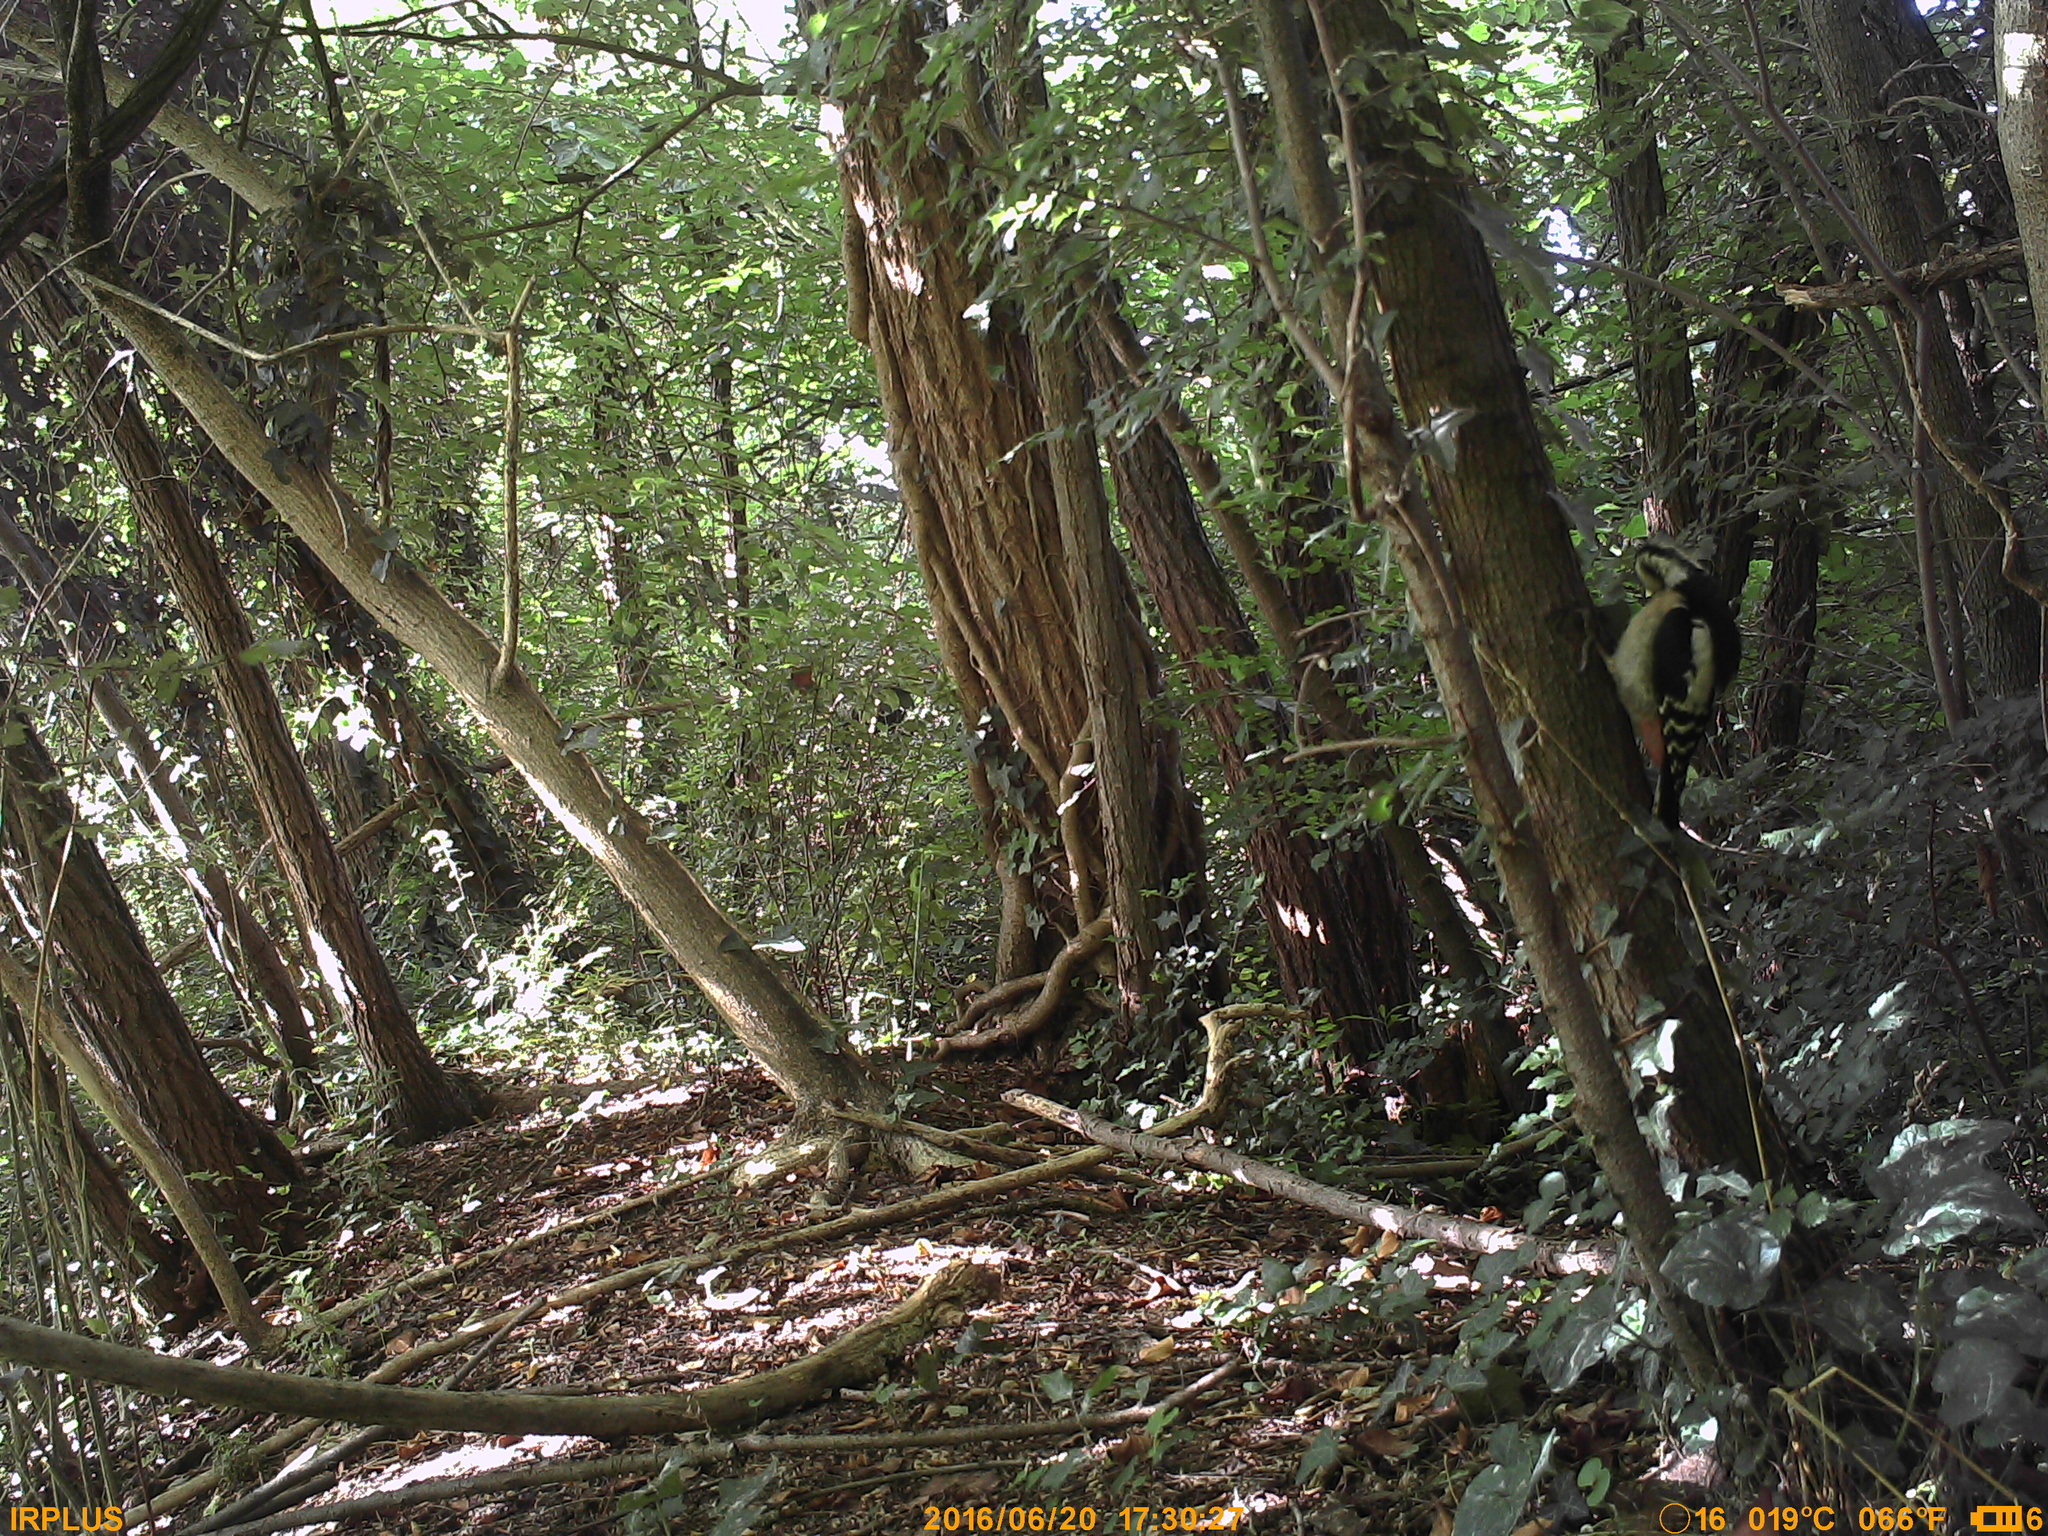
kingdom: Animalia
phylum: Chordata
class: Aves
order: Piciformes
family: Picidae
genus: Dendrocopos
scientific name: Dendrocopos major
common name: Great spotted woodpecker
